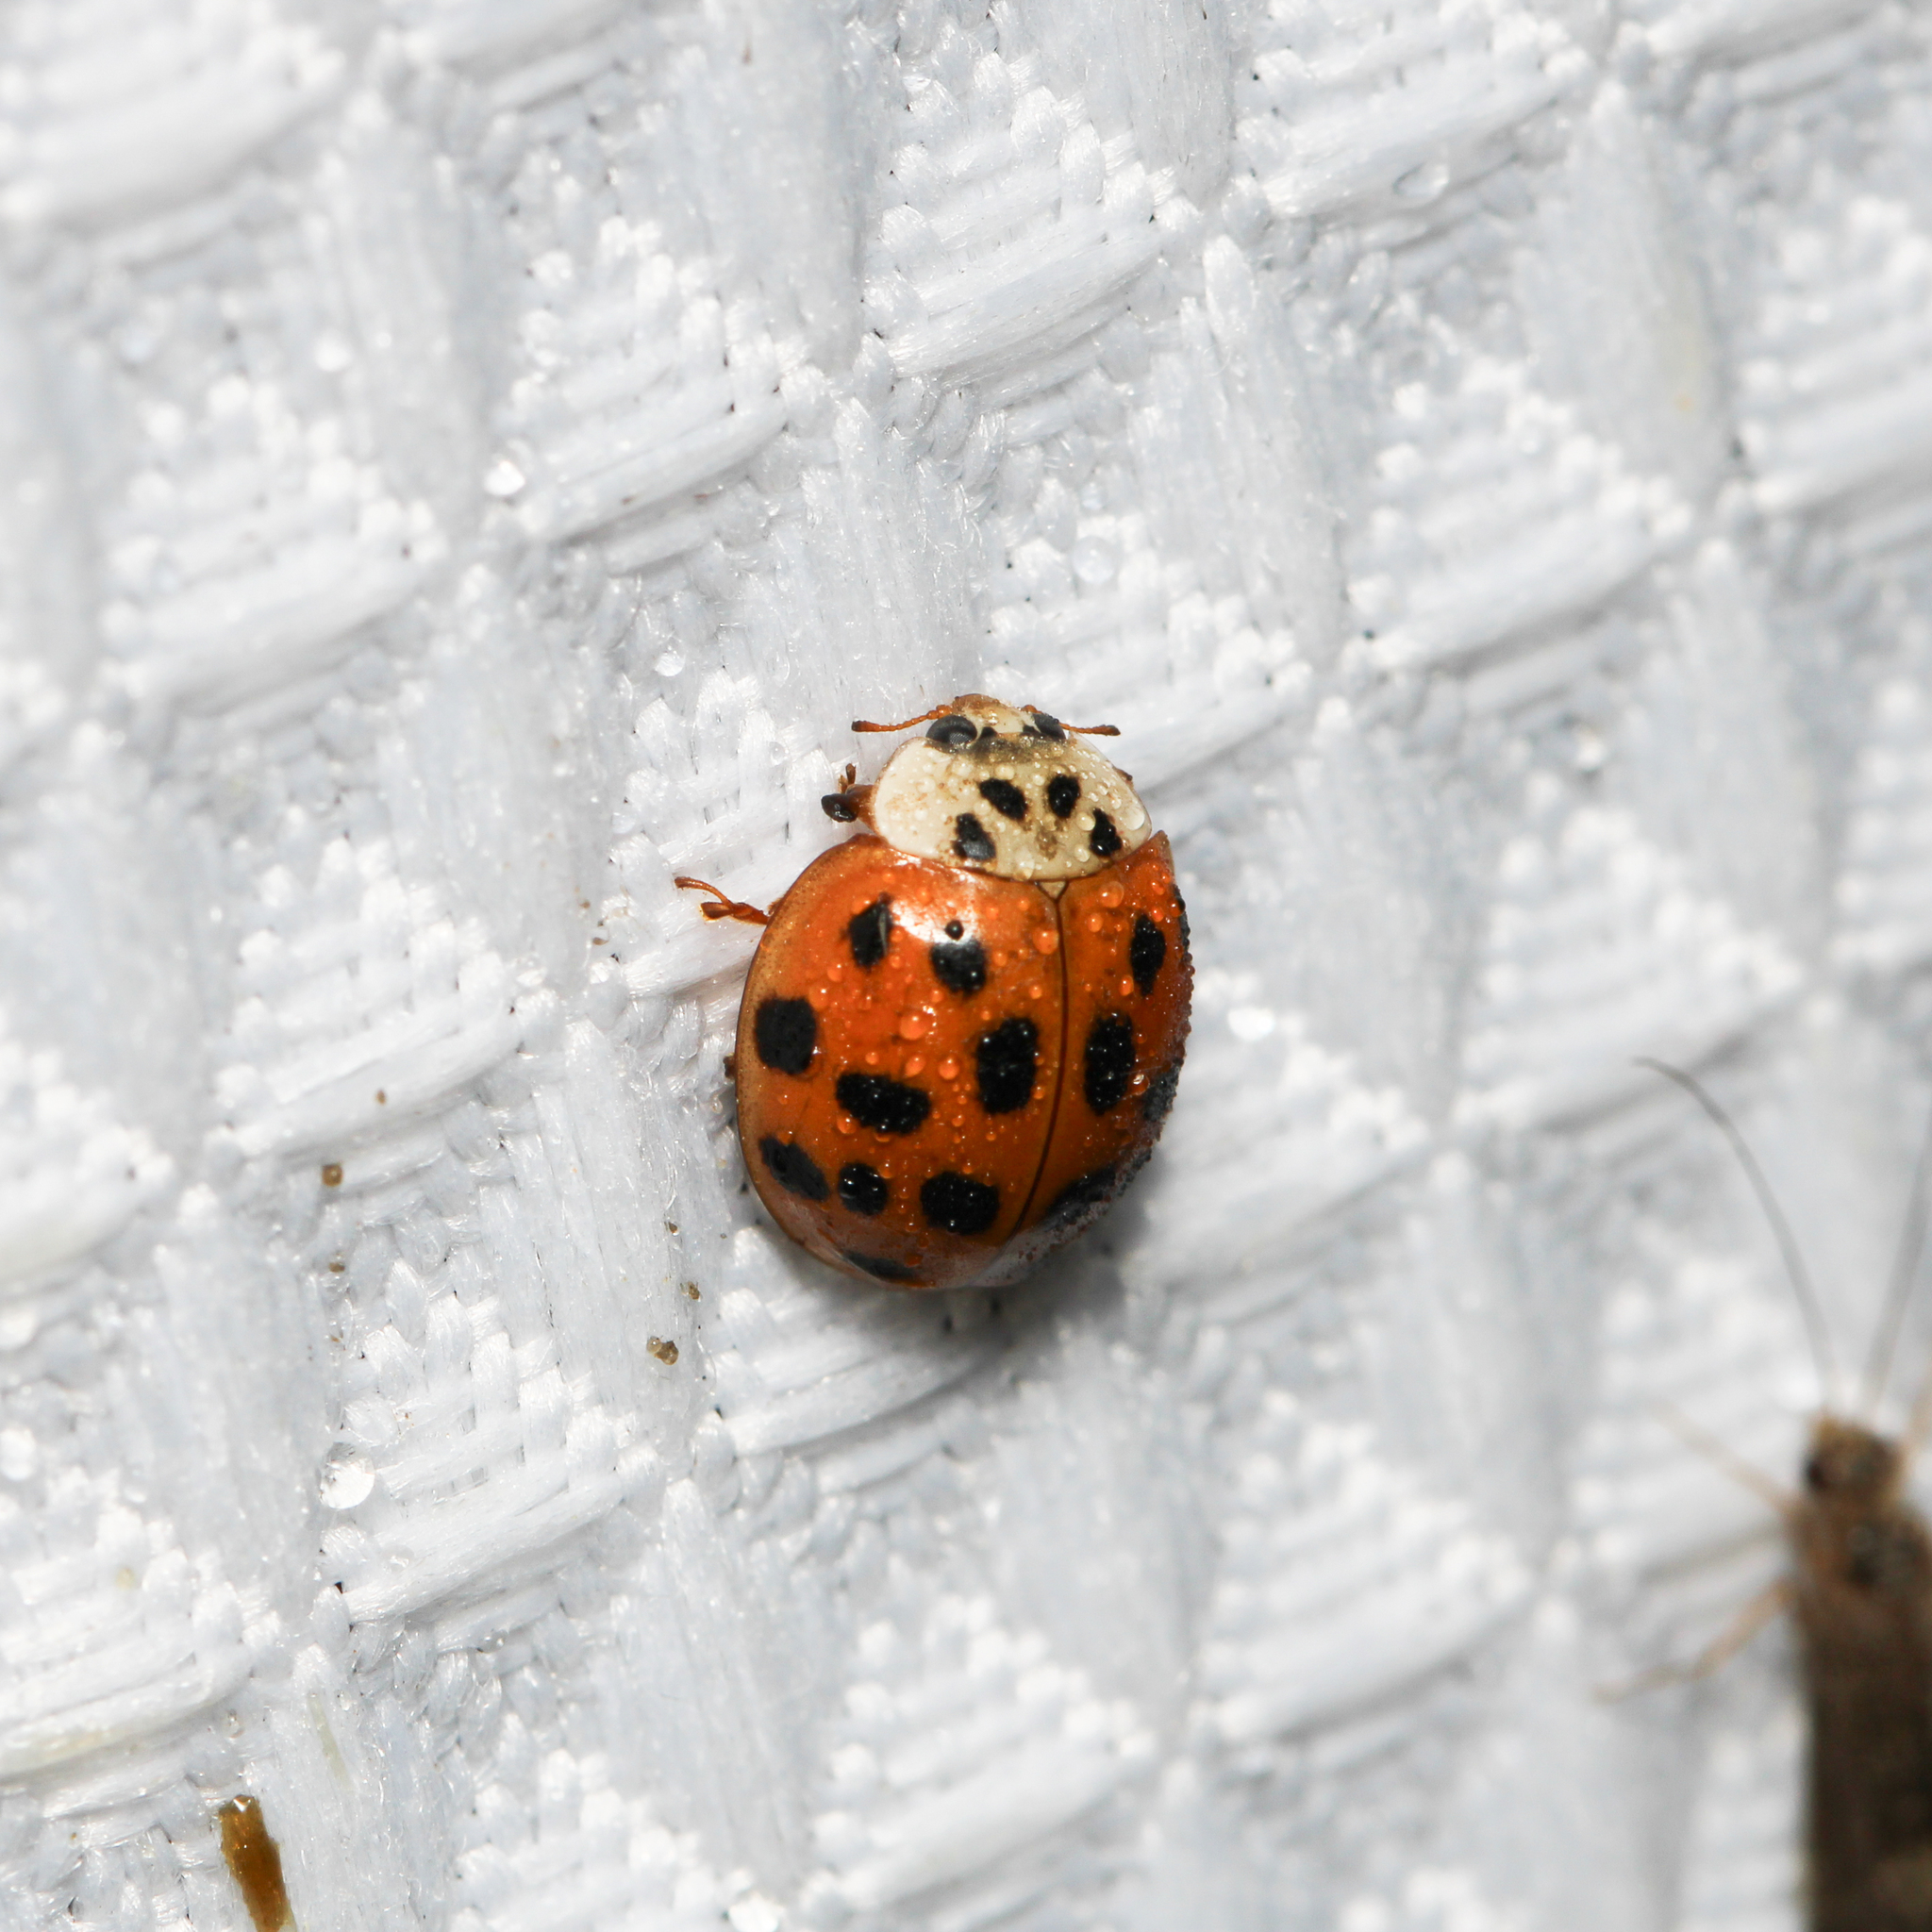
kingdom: Animalia
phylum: Arthropoda
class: Insecta
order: Coleoptera
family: Coccinellidae
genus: Harmonia
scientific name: Harmonia axyridis
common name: Harlequin ladybird
